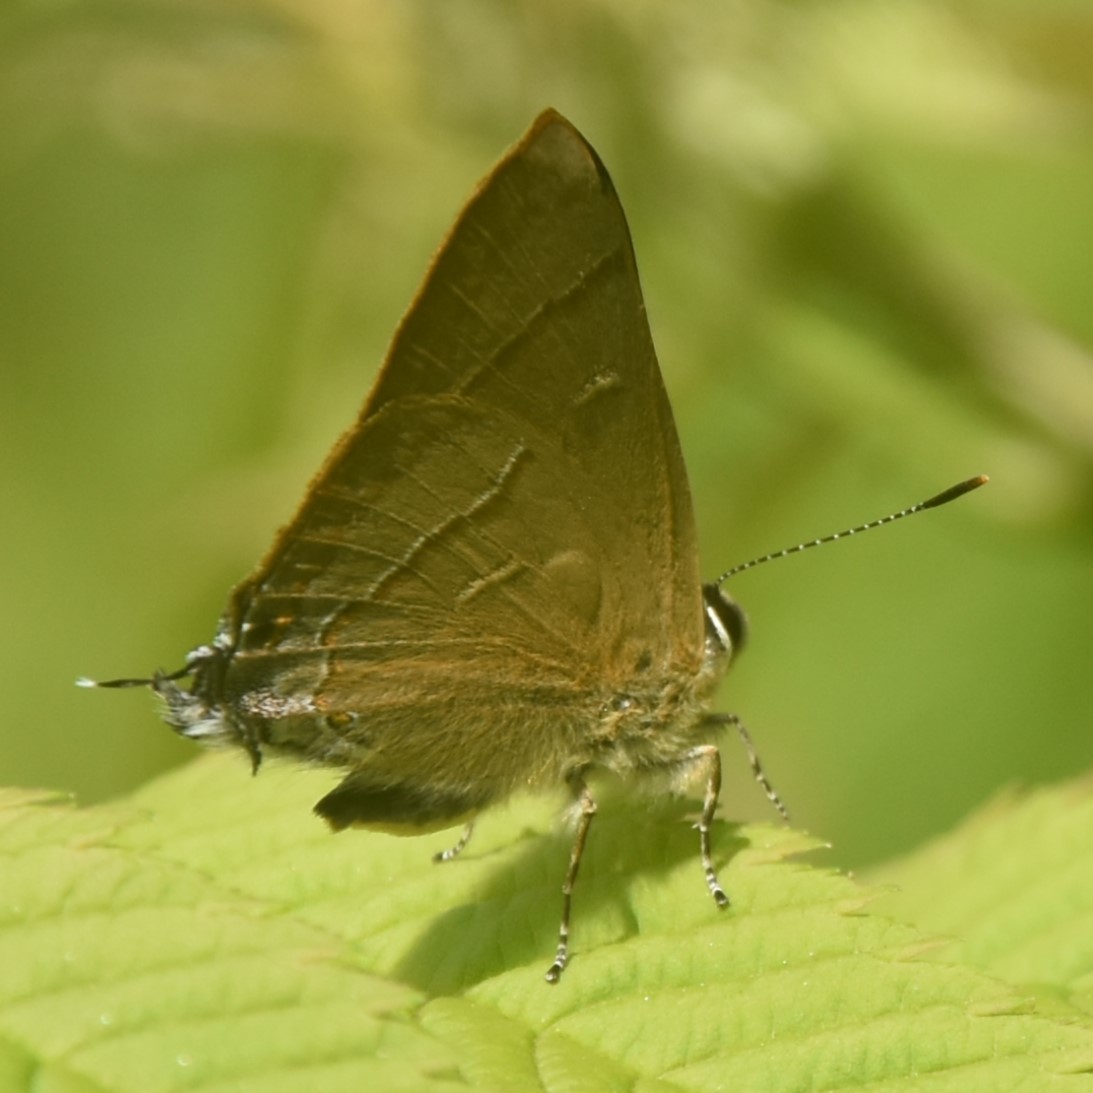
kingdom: Animalia
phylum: Arthropoda
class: Insecta
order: Lepidoptera
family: Lycaenidae
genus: Rapala
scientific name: Rapala nissa
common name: Common flash
